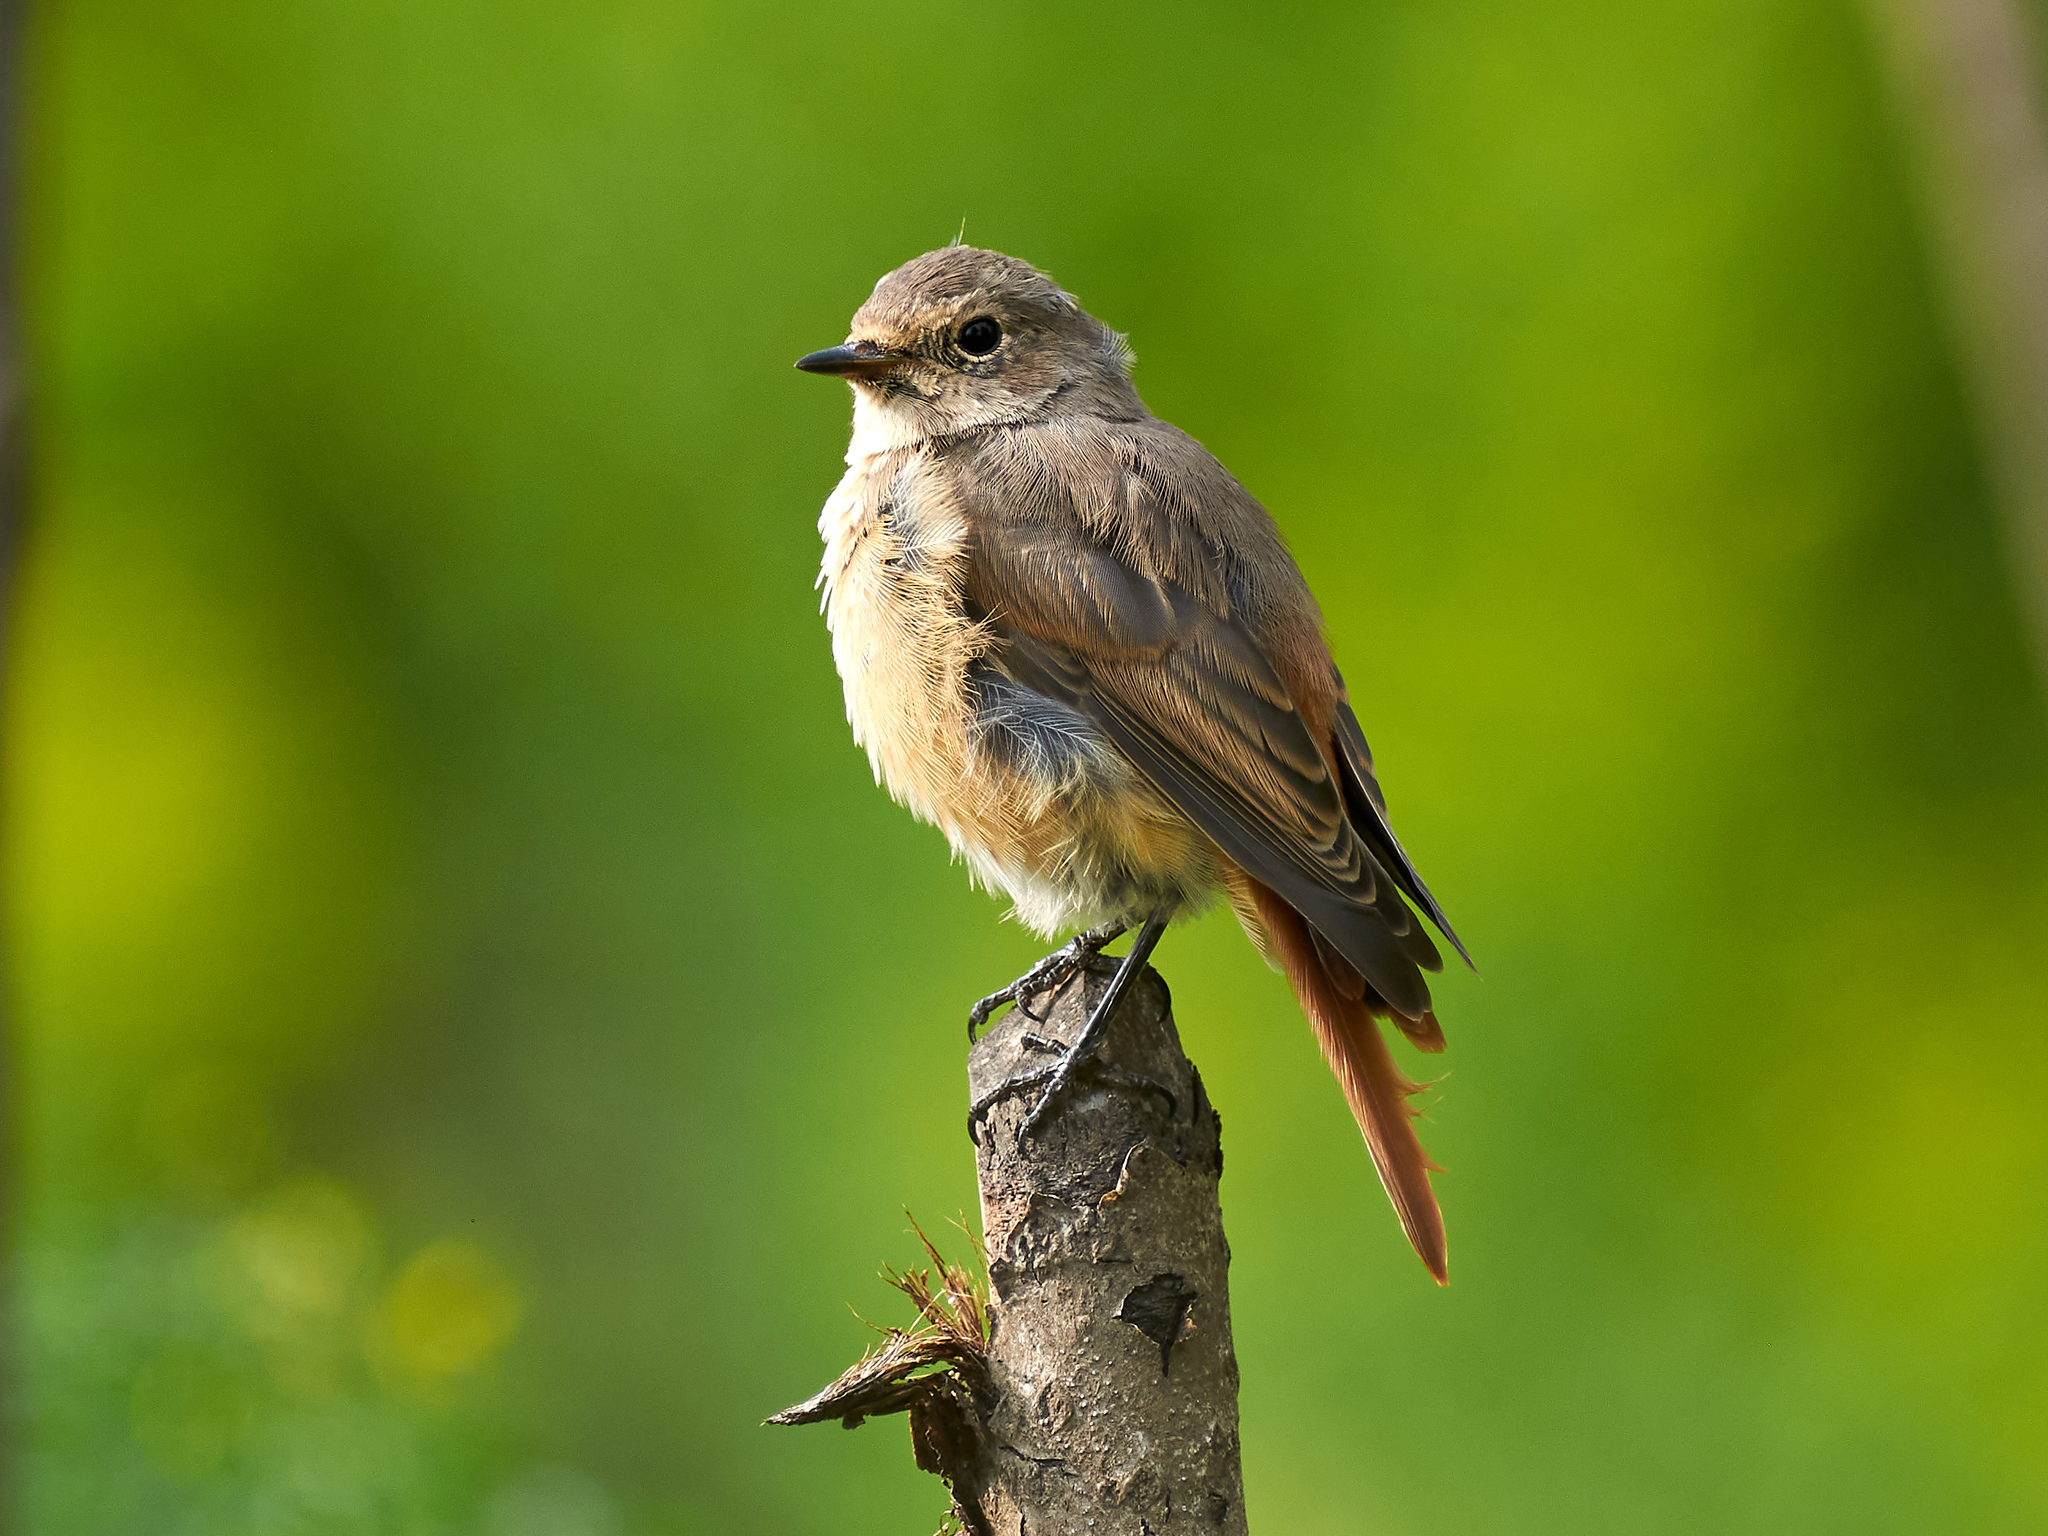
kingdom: Animalia
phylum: Chordata
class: Aves
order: Passeriformes
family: Muscicapidae
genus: Phoenicurus
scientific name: Phoenicurus phoenicurus
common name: Common redstart
